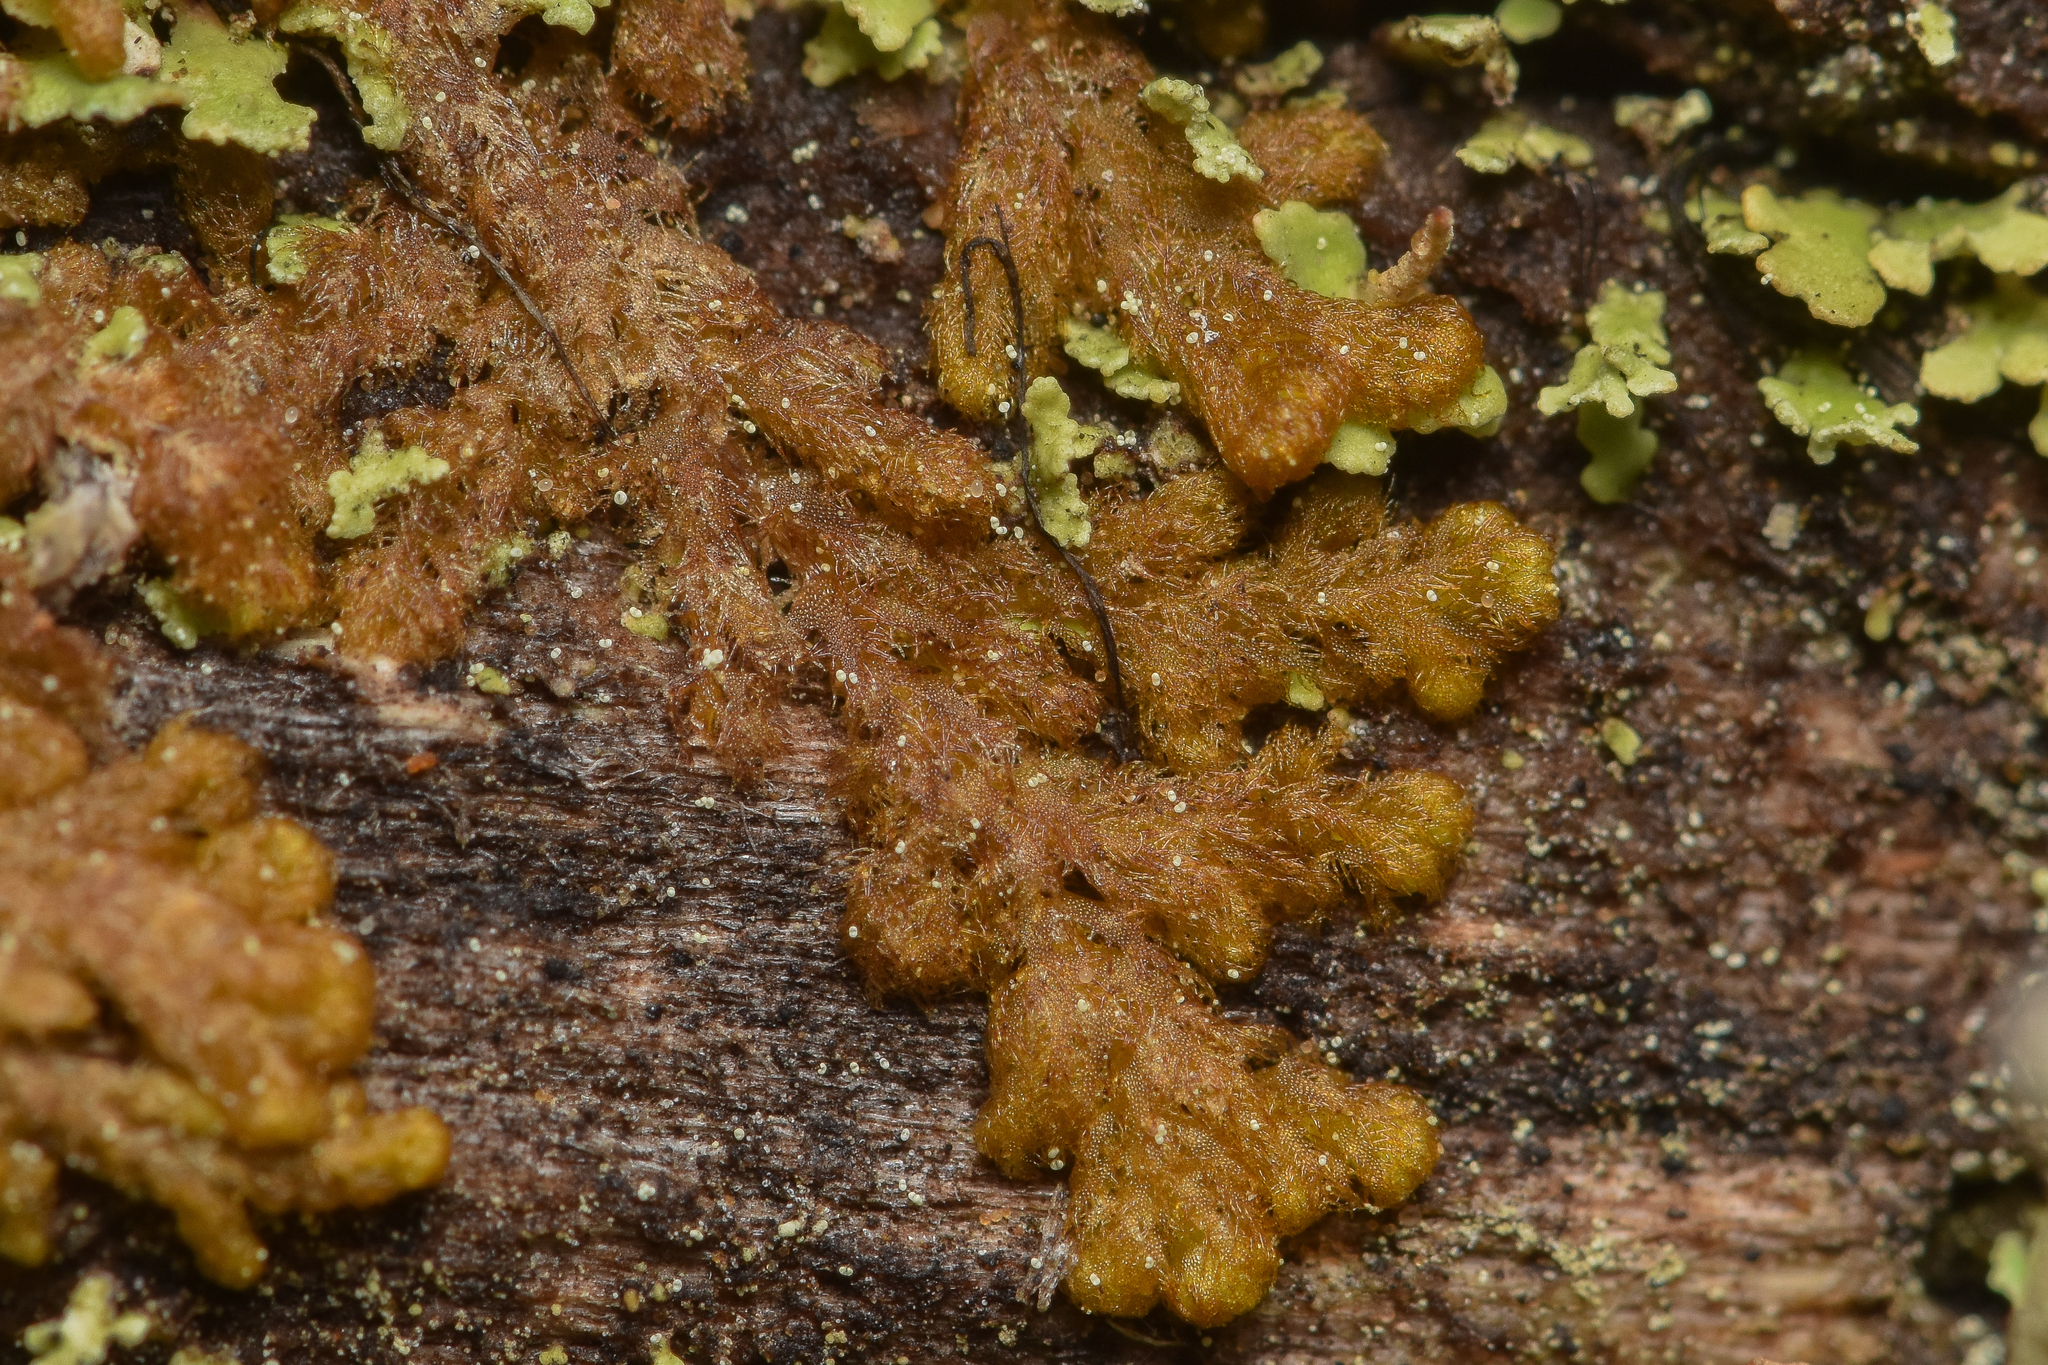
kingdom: Plantae
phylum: Marchantiophyta
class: Jungermanniopsida
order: Ptilidiales
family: Ptilidiaceae
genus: Ptilidium
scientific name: Ptilidium pulcherrimum
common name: Tree fringewort
